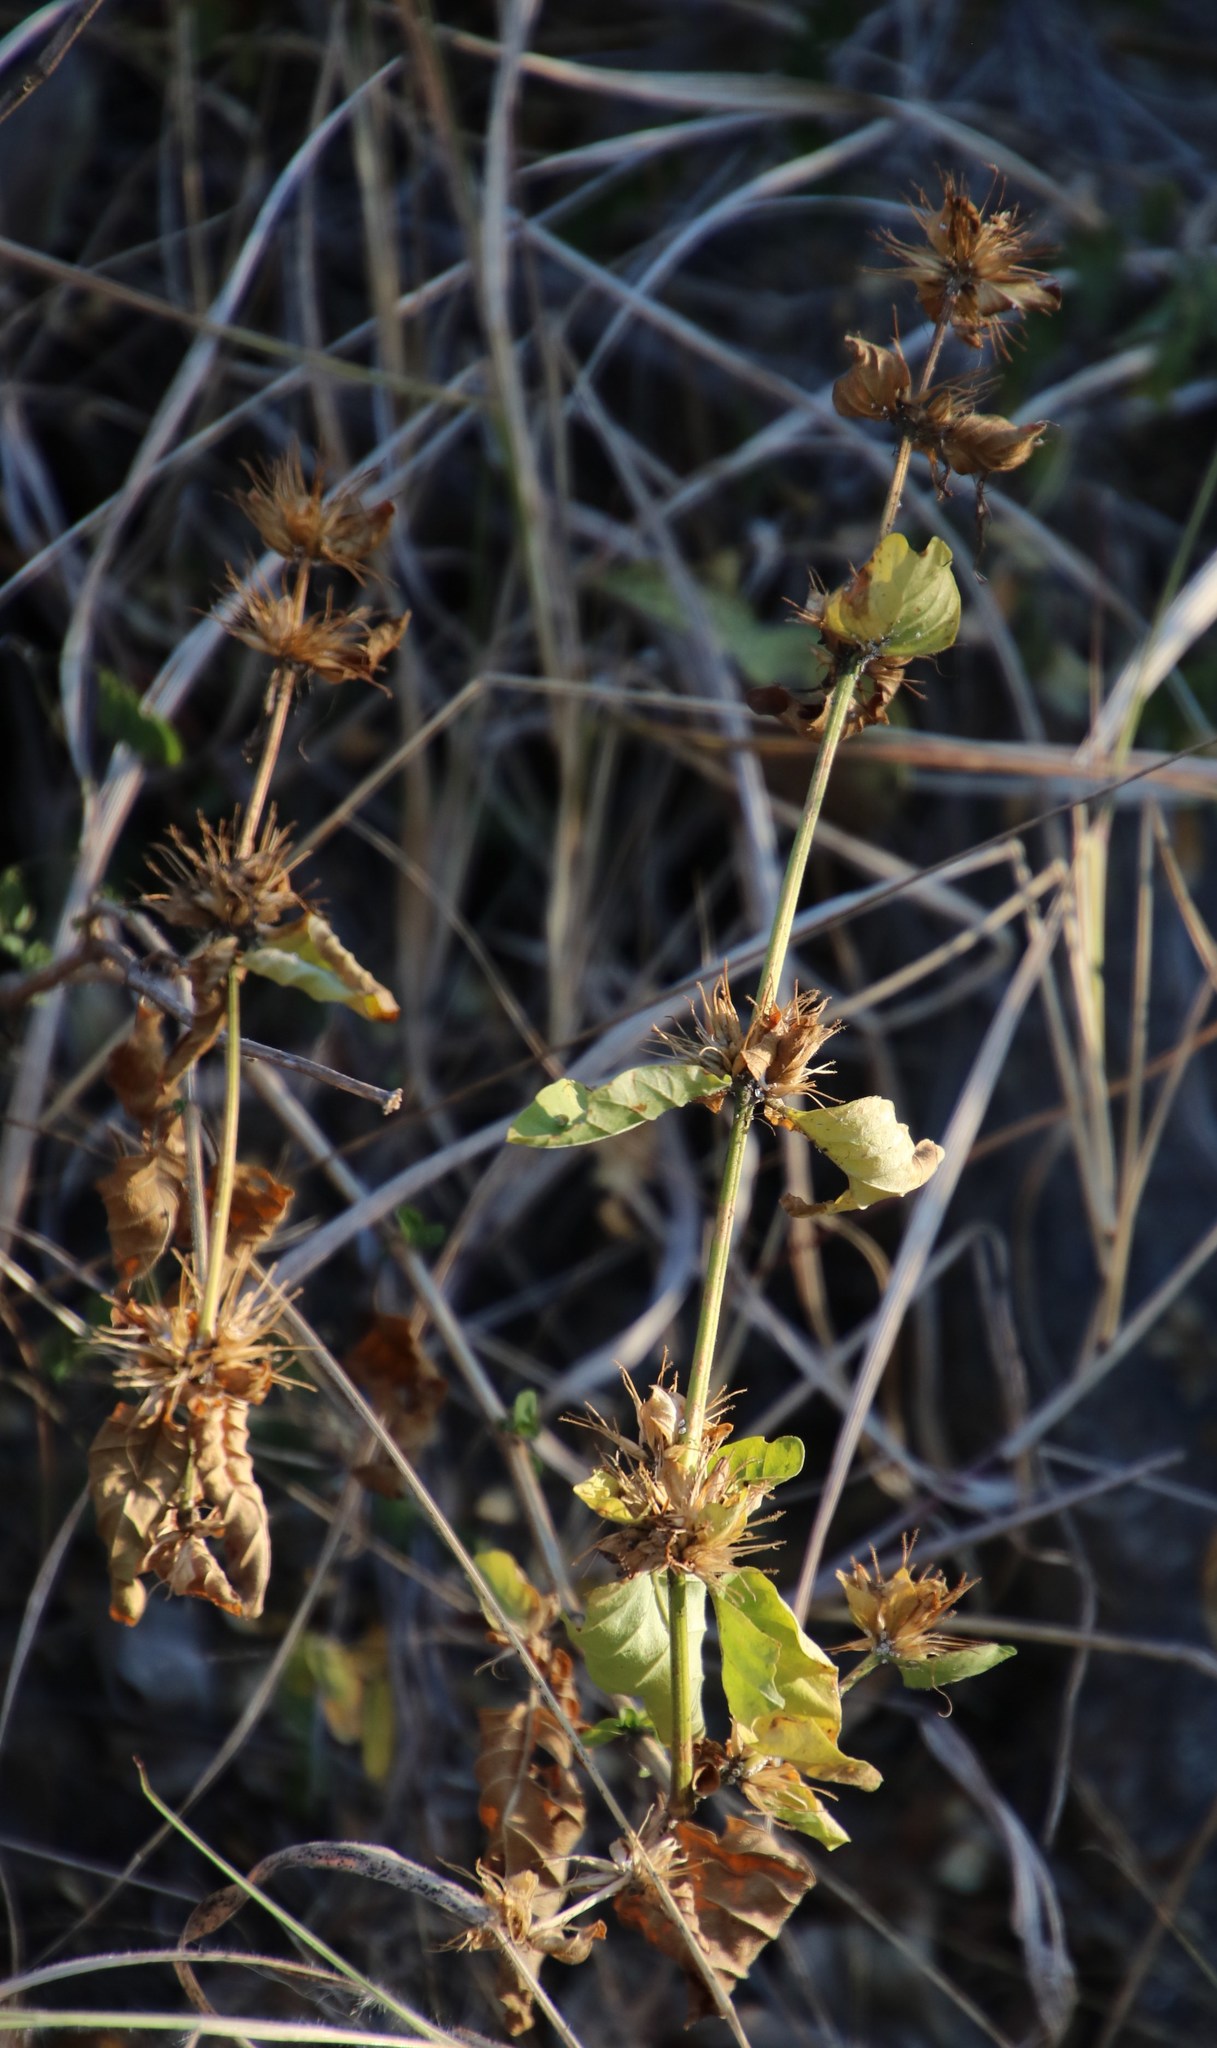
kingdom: Plantae
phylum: Tracheophyta
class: Magnoliopsida
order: Lamiales
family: Acanthaceae
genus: Hypoestes
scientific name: Hypoestes aristata
